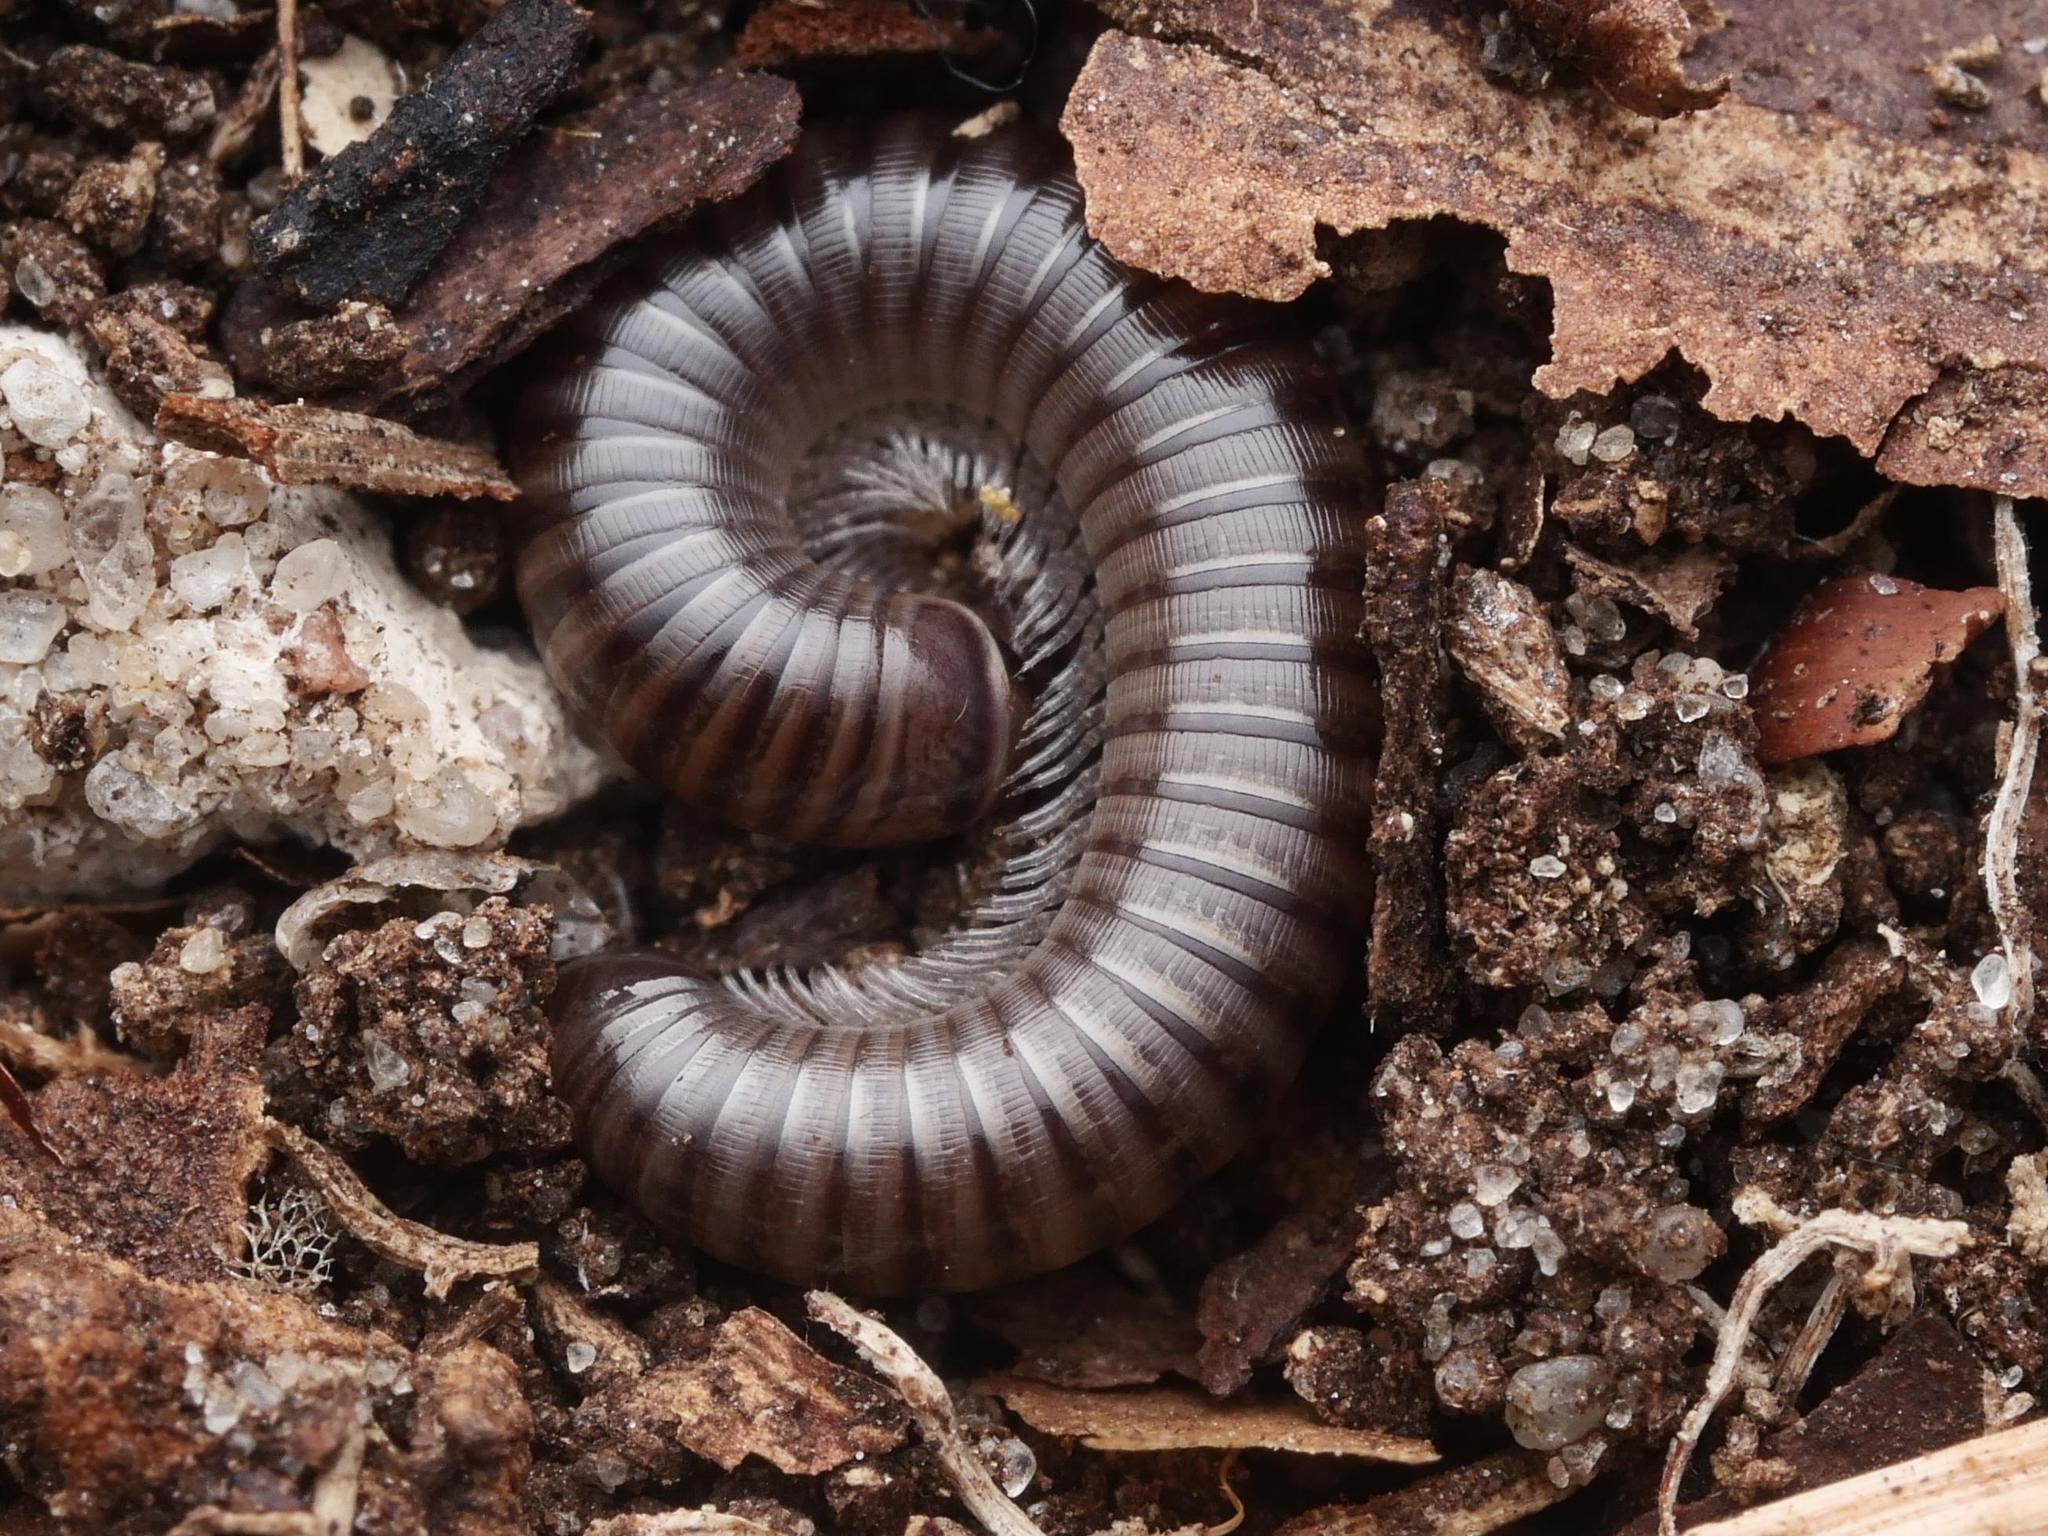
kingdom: Animalia
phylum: Arthropoda
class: Diplopoda
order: Julida
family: Julidae
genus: Cylindroiulus
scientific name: Cylindroiulus caeruleocinctus
